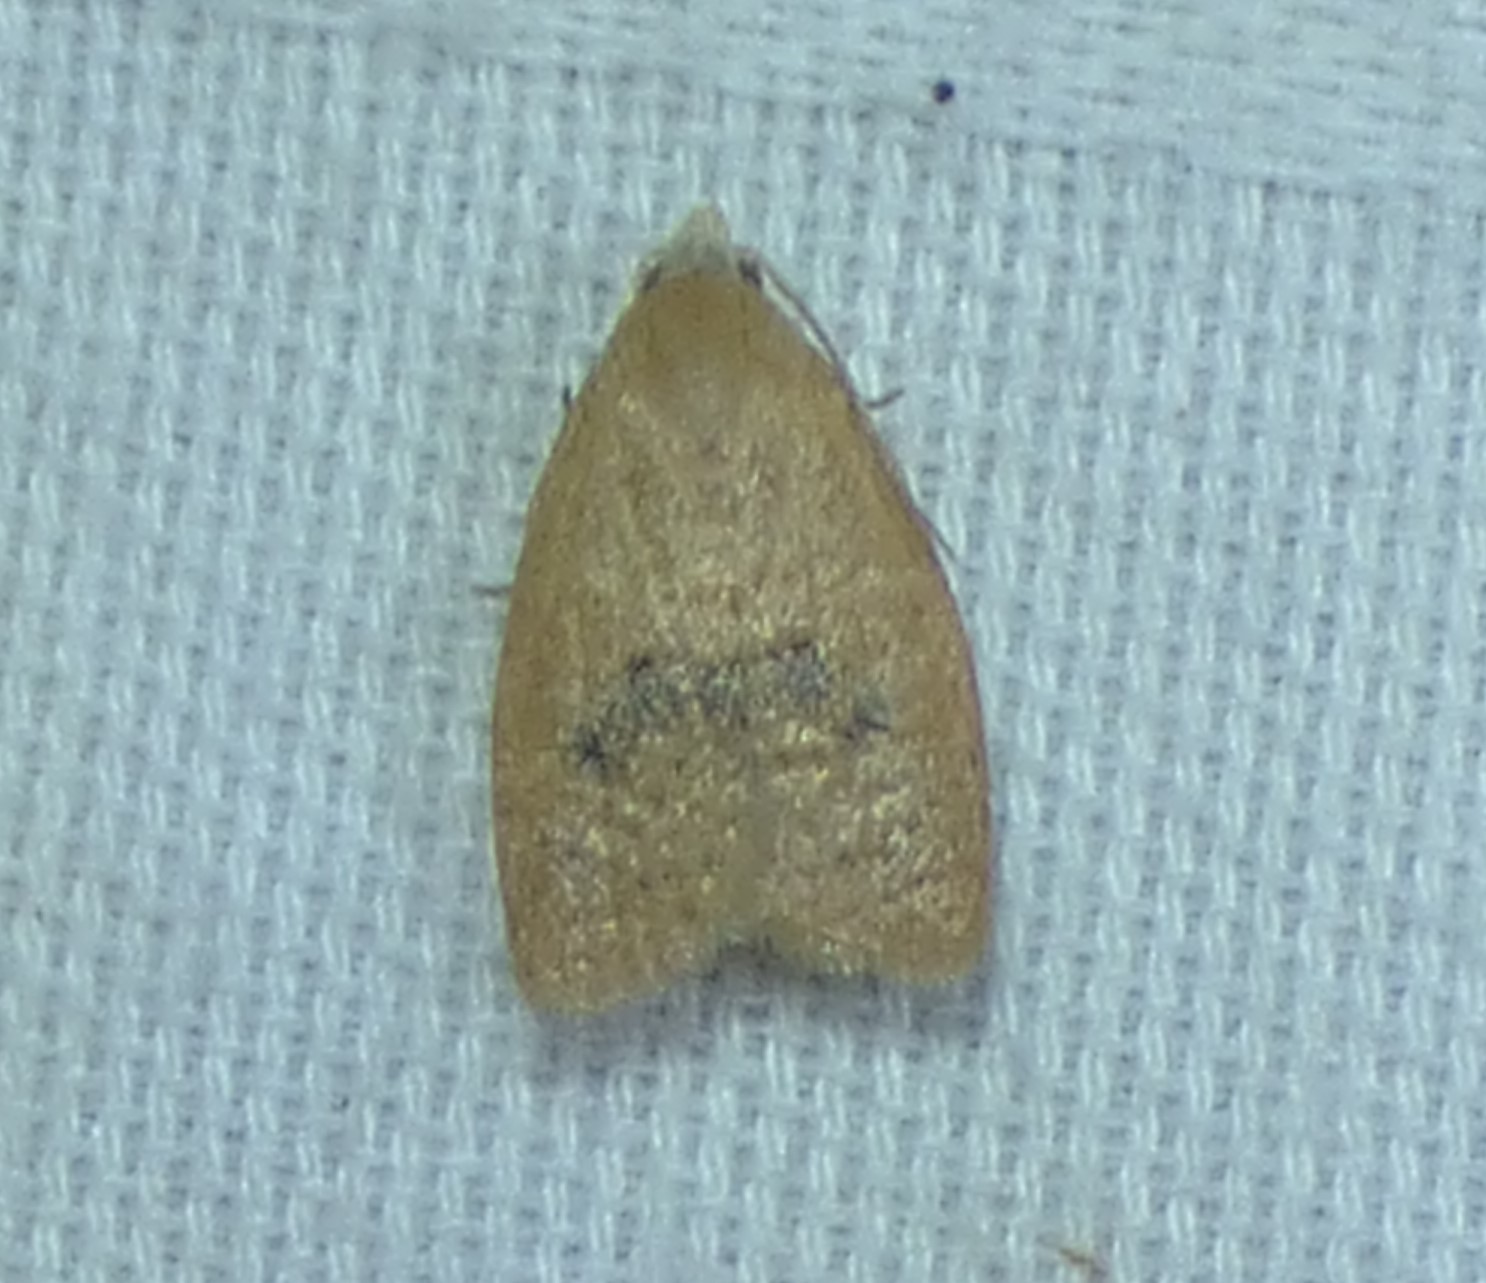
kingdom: Animalia
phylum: Arthropoda
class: Insecta
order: Lepidoptera
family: Tortricidae
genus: Sparganothoides
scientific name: Sparganothoides lentiginosana
